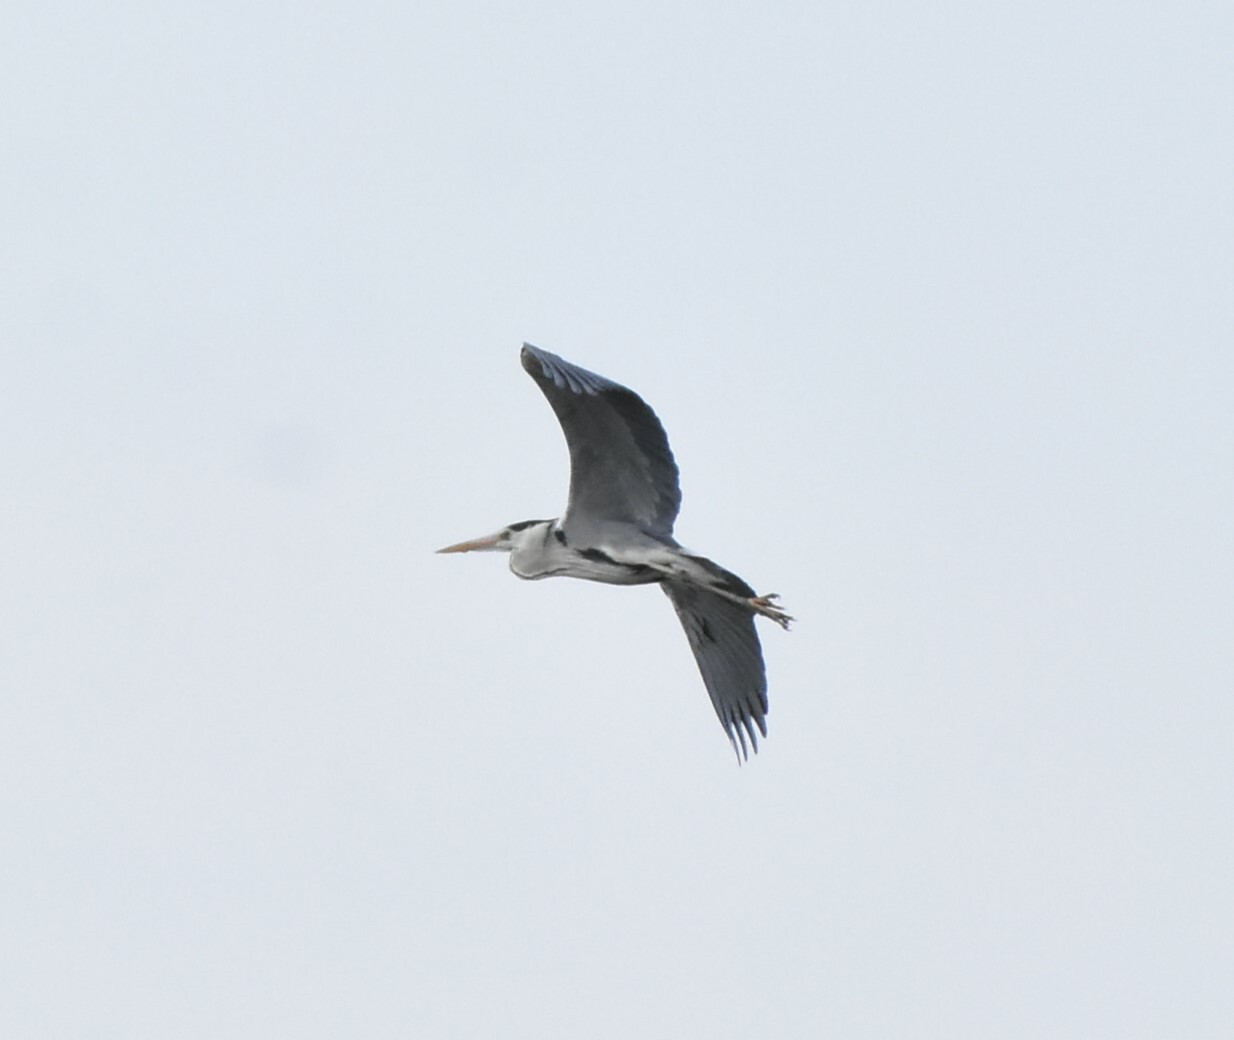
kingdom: Animalia
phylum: Chordata
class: Aves
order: Pelecaniformes
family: Ardeidae
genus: Ardea
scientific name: Ardea cinerea
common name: Grey heron
